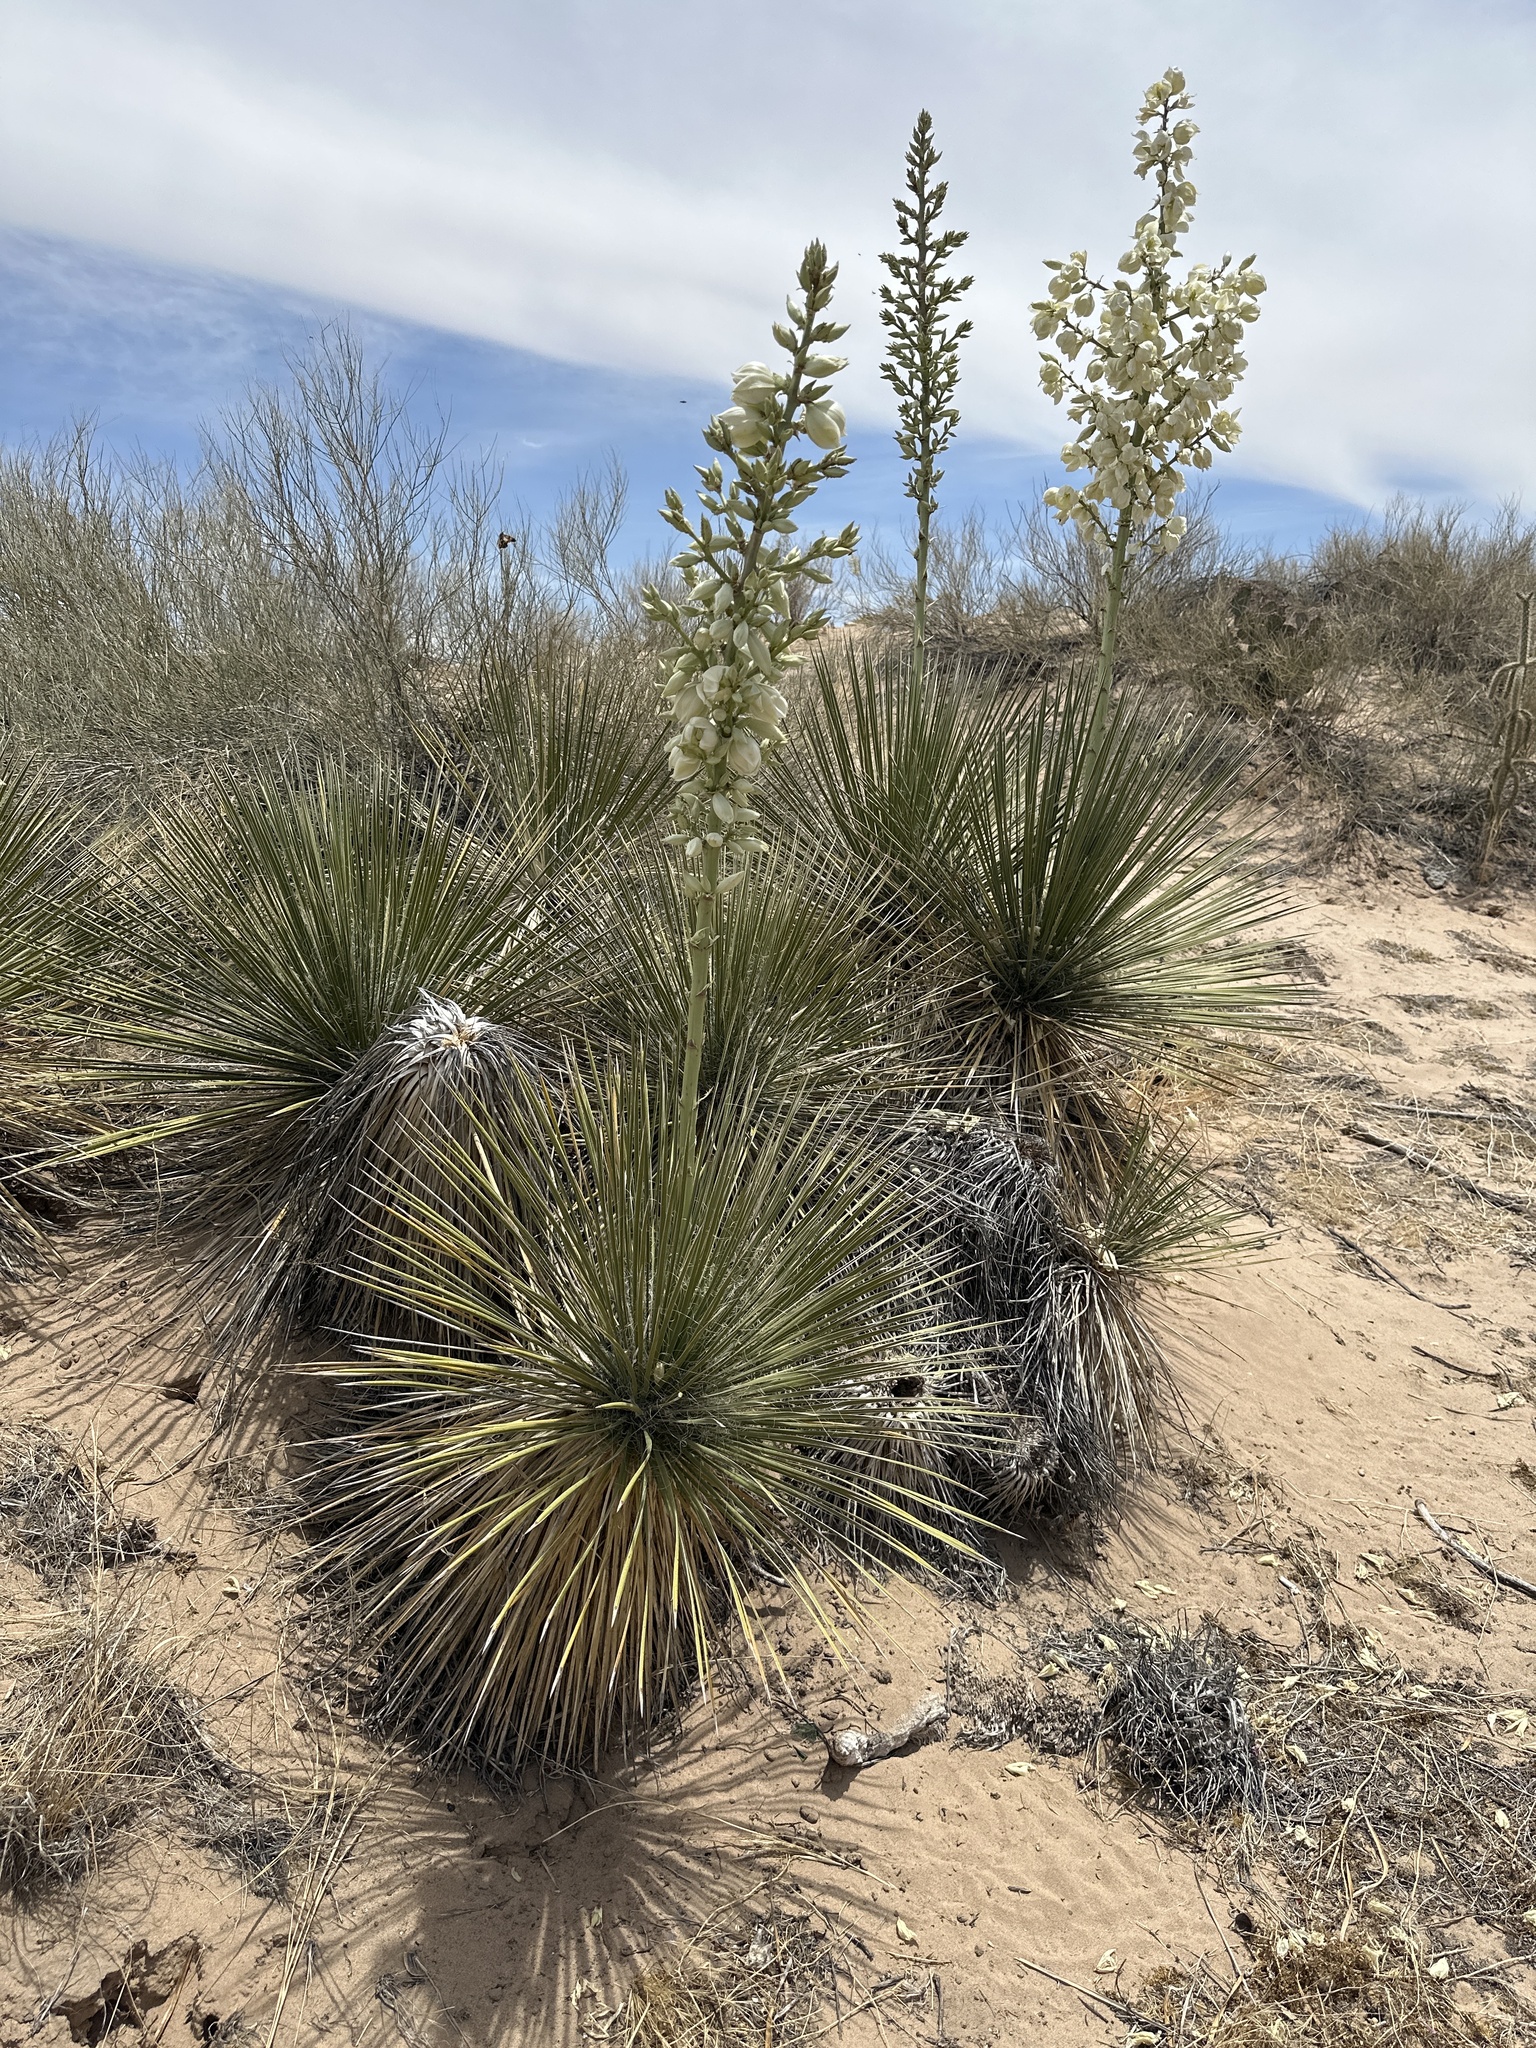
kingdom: Plantae
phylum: Tracheophyta
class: Liliopsida
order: Asparagales
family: Asparagaceae
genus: Yucca
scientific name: Yucca elata
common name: Palmella
